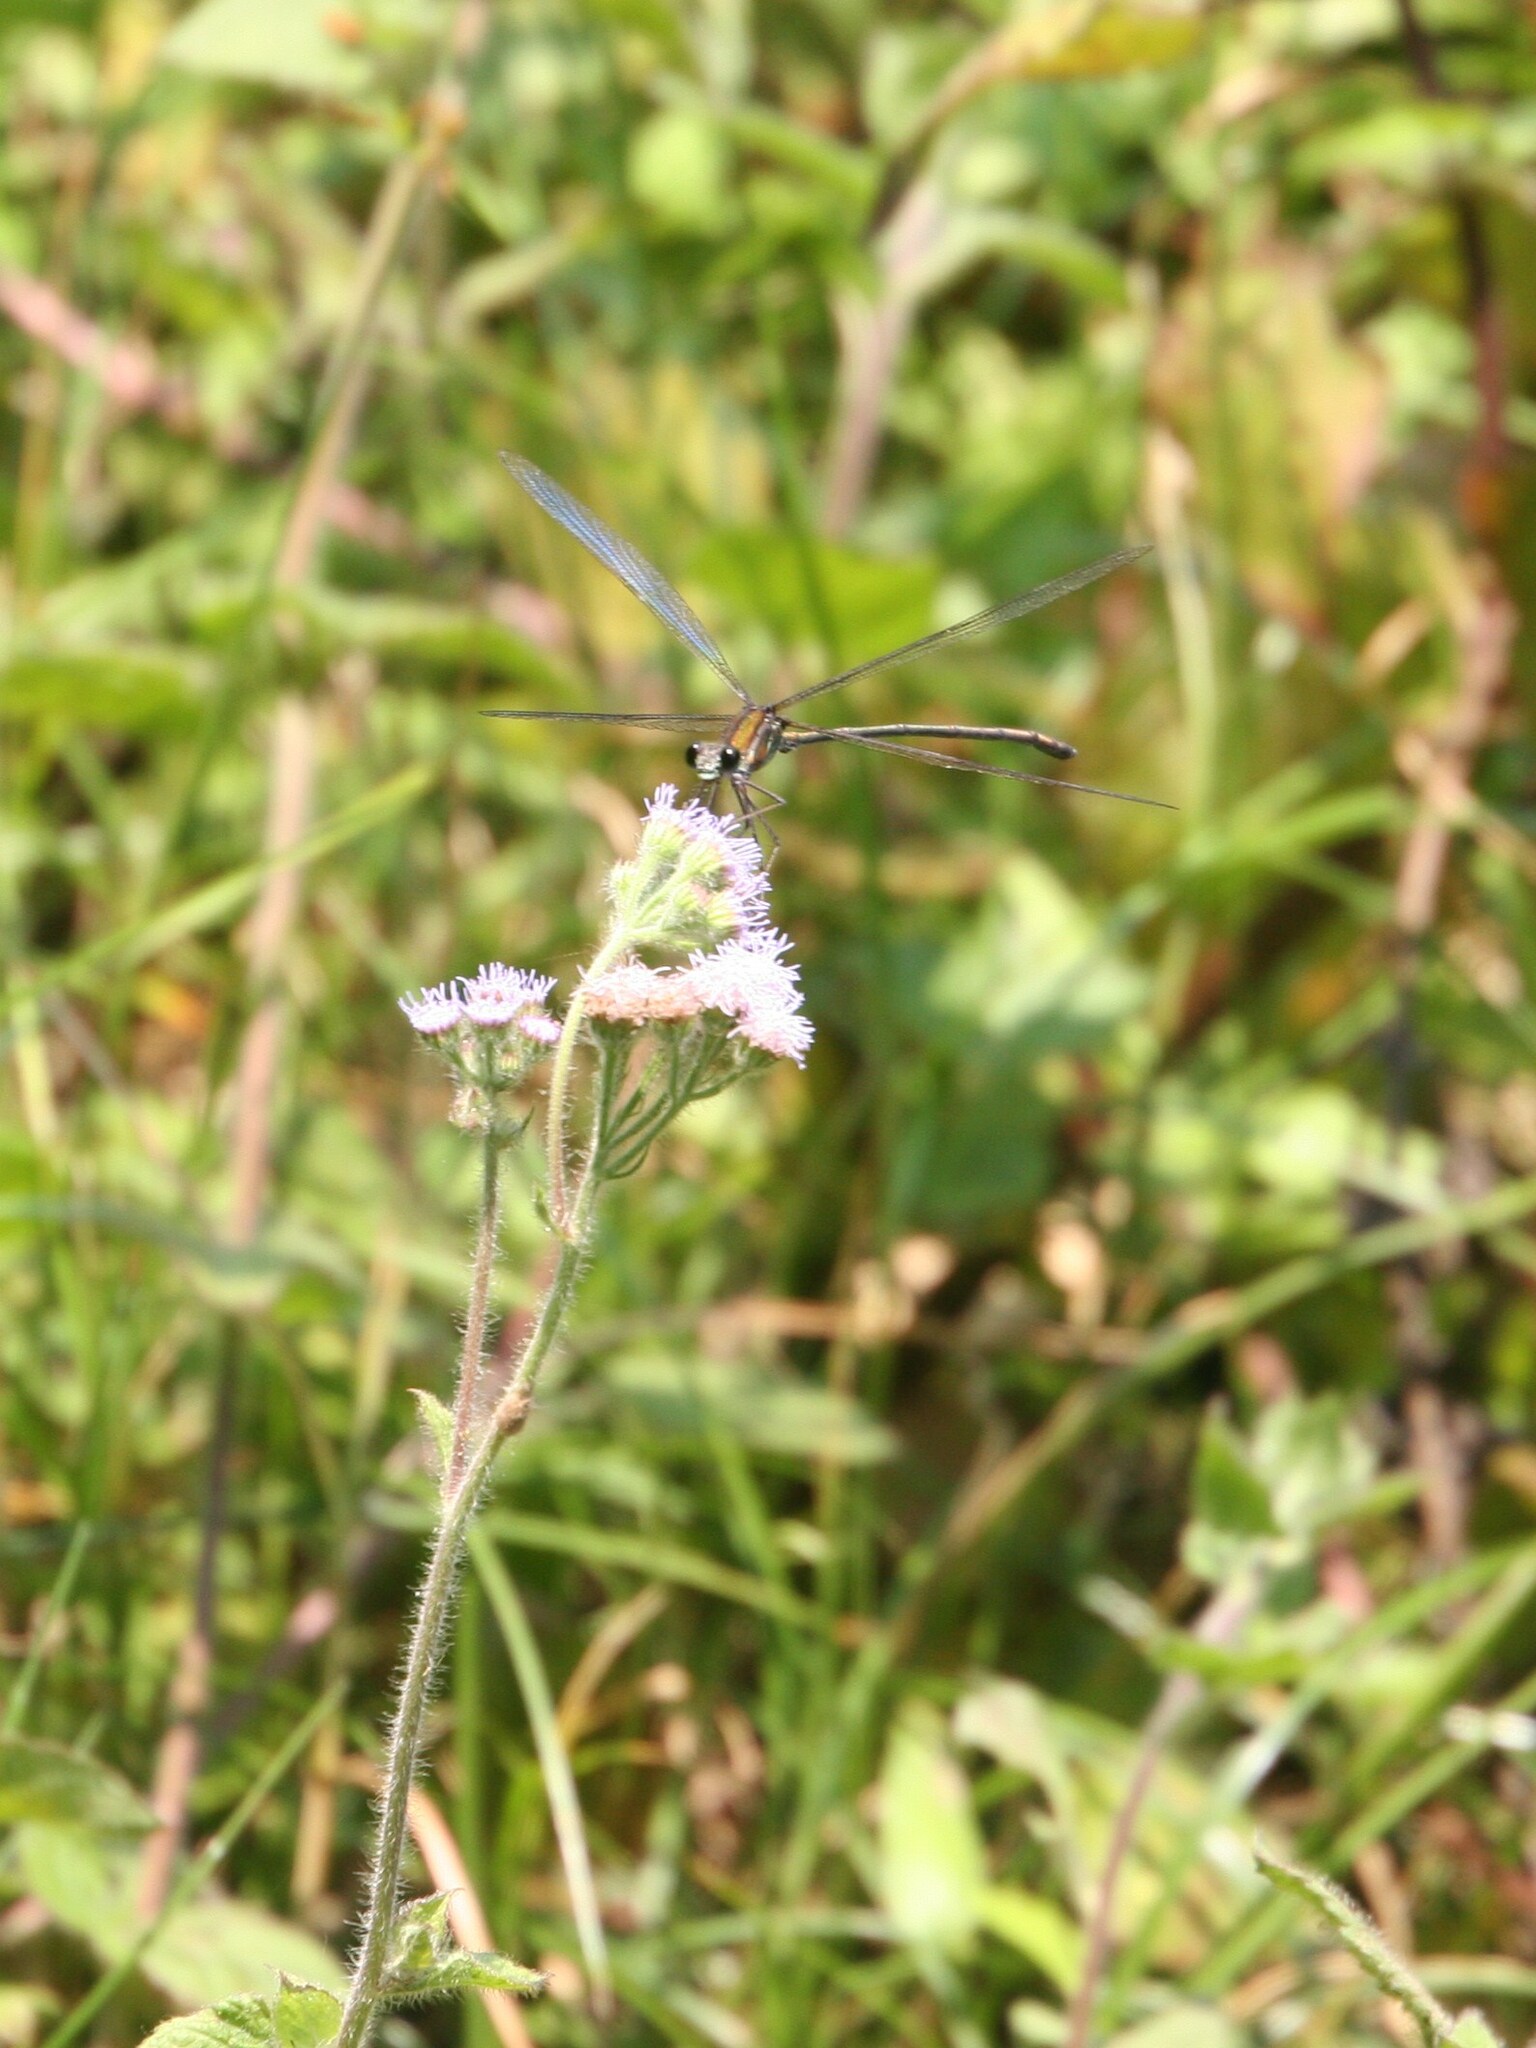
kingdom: Animalia
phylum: Arthropoda
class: Insecta
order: Odonata
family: Calopterygidae
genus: Phaon
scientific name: Phaon rasoherinae
